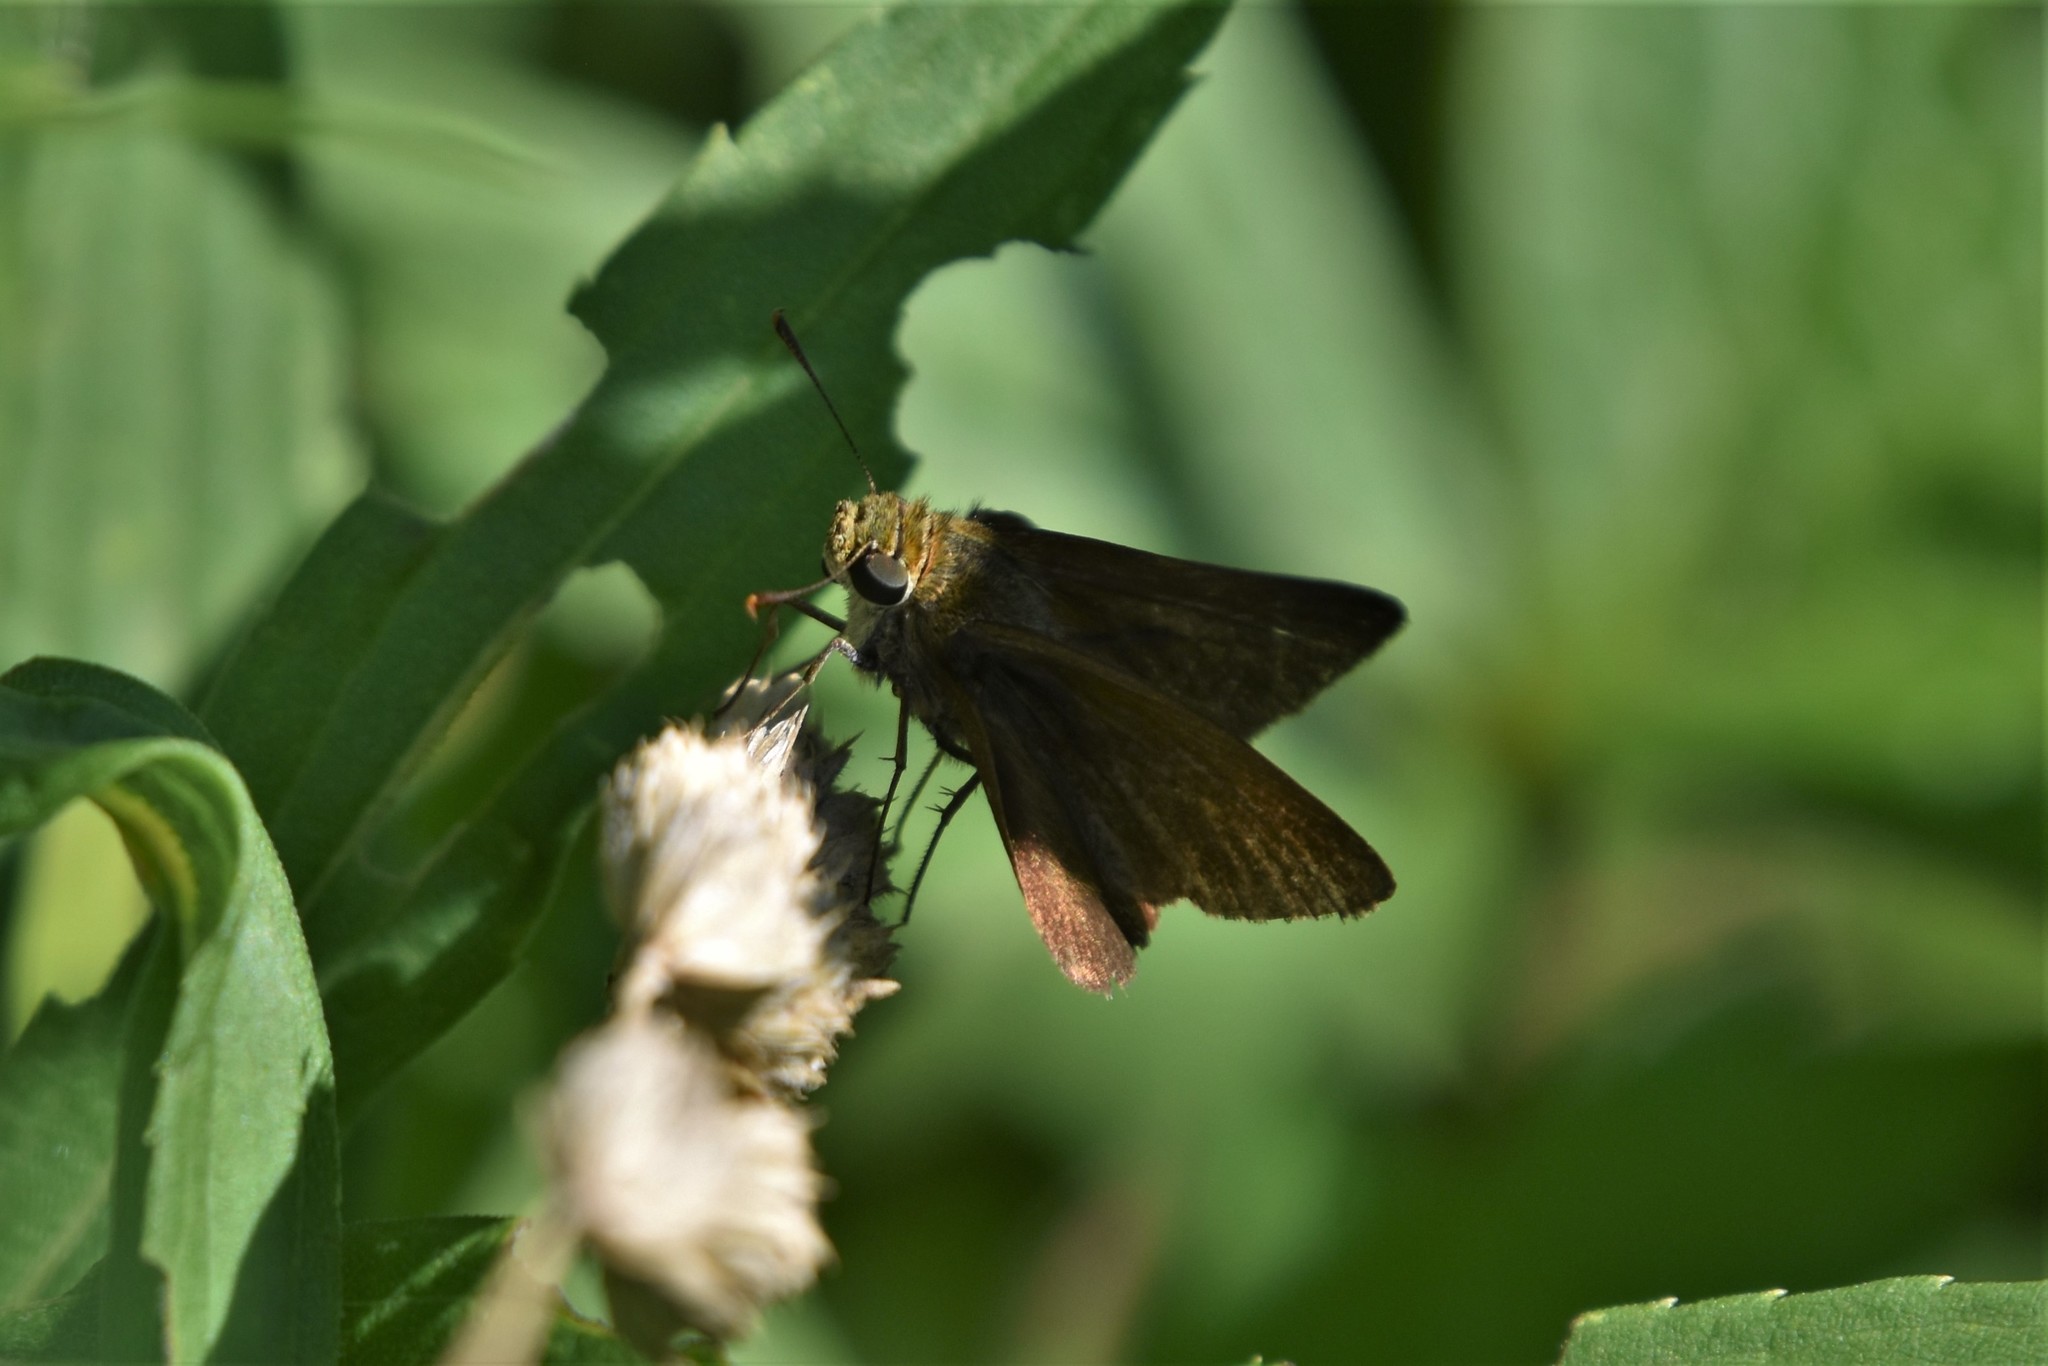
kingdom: Animalia
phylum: Arthropoda
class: Insecta
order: Lepidoptera
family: Hesperiidae
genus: Euphyes
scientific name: Euphyes vestris
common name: Dun skipper
